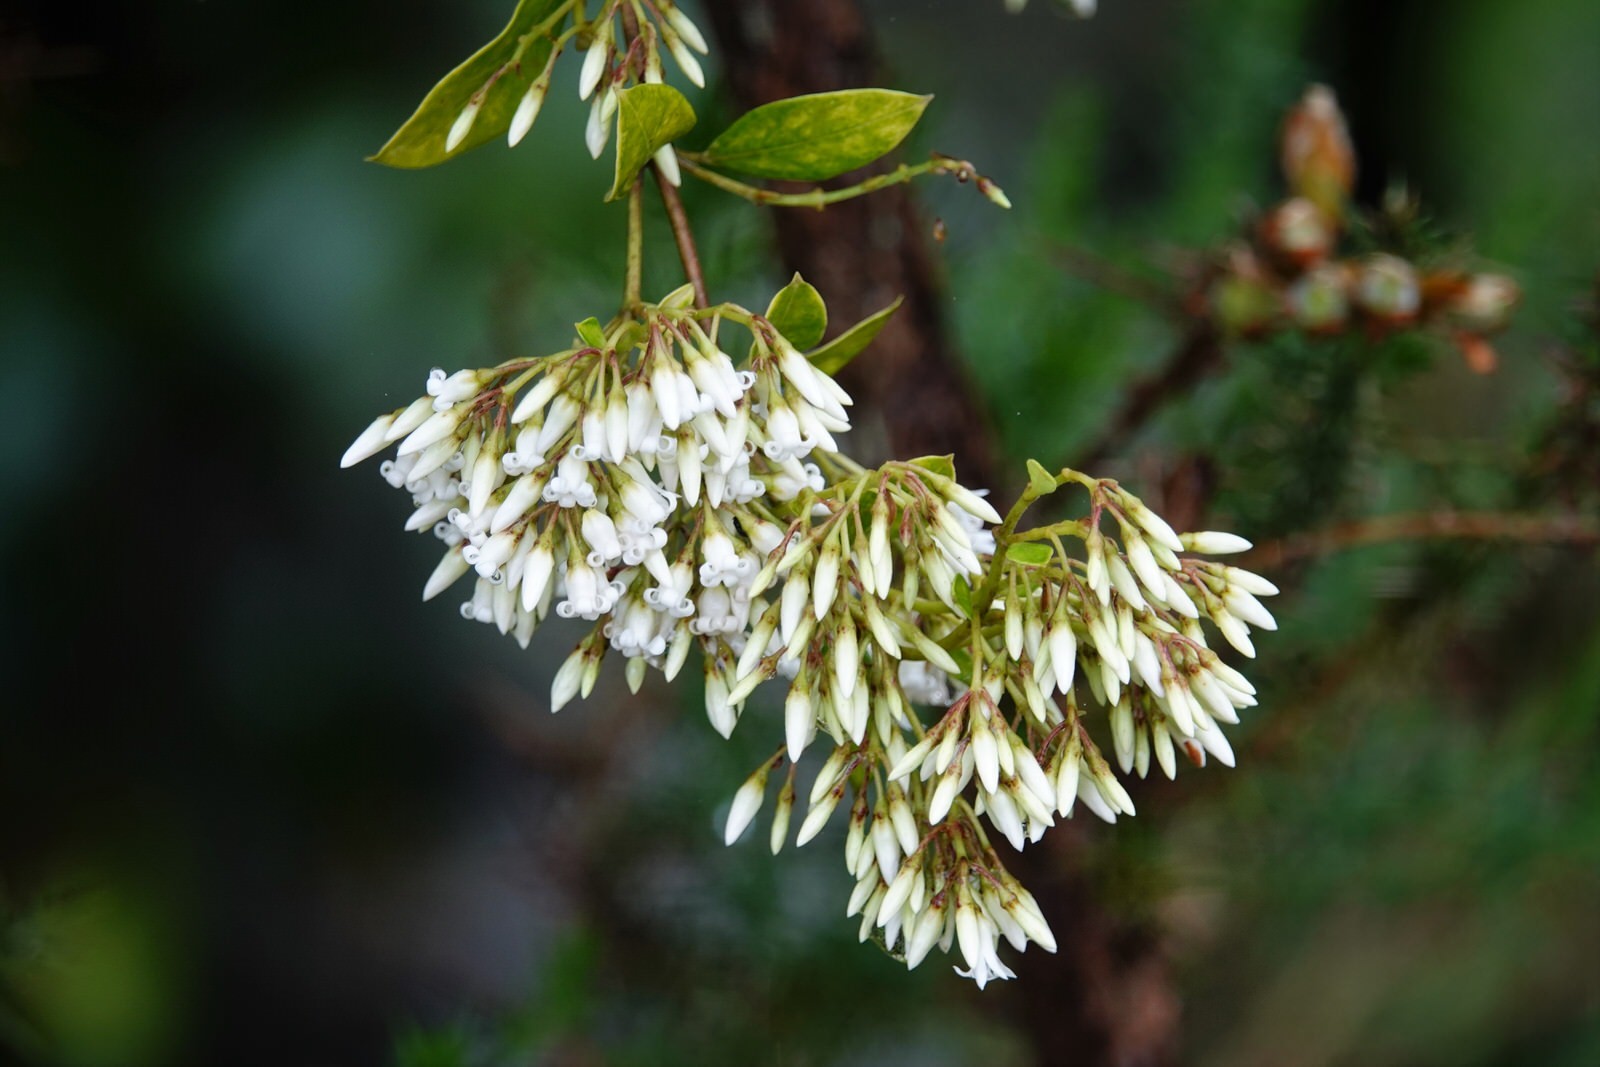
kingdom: Plantae
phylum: Tracheophyta
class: Magnoliopsida
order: Gentianales
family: Apocynaceae
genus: Parsonsia
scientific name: Parsonsia heterophylla
